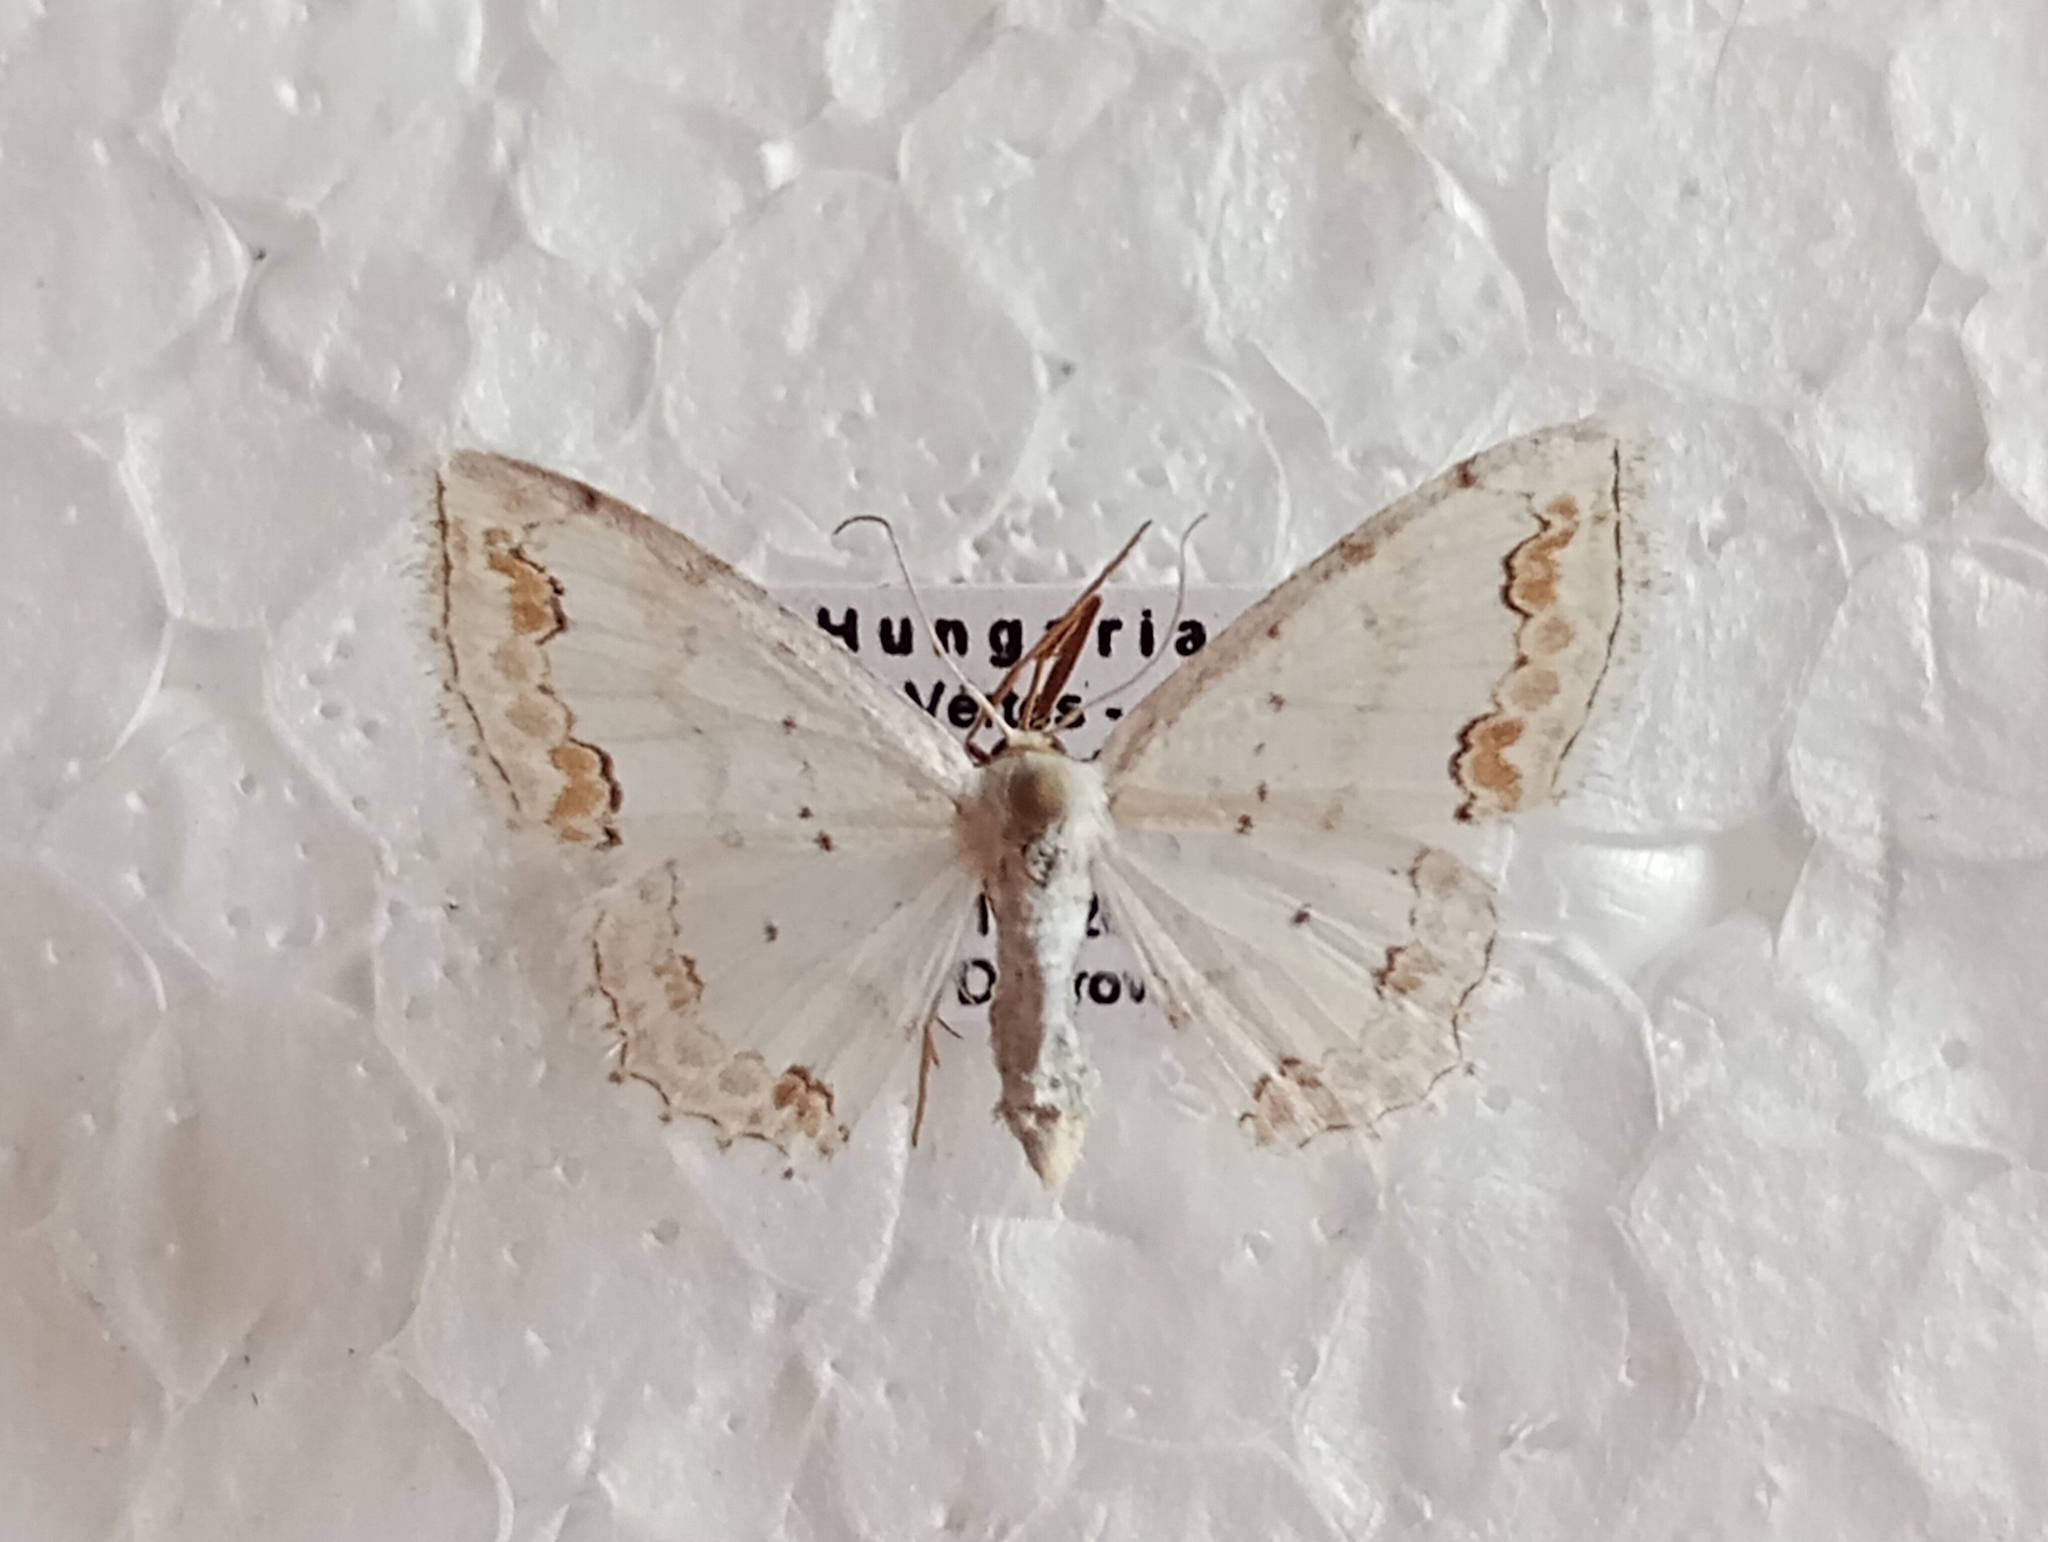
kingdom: Animalia
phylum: Arthropoda
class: Insecta
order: Lepidoptera
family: Geometridae
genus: Scopula
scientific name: Scopula ornata
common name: Lace border
